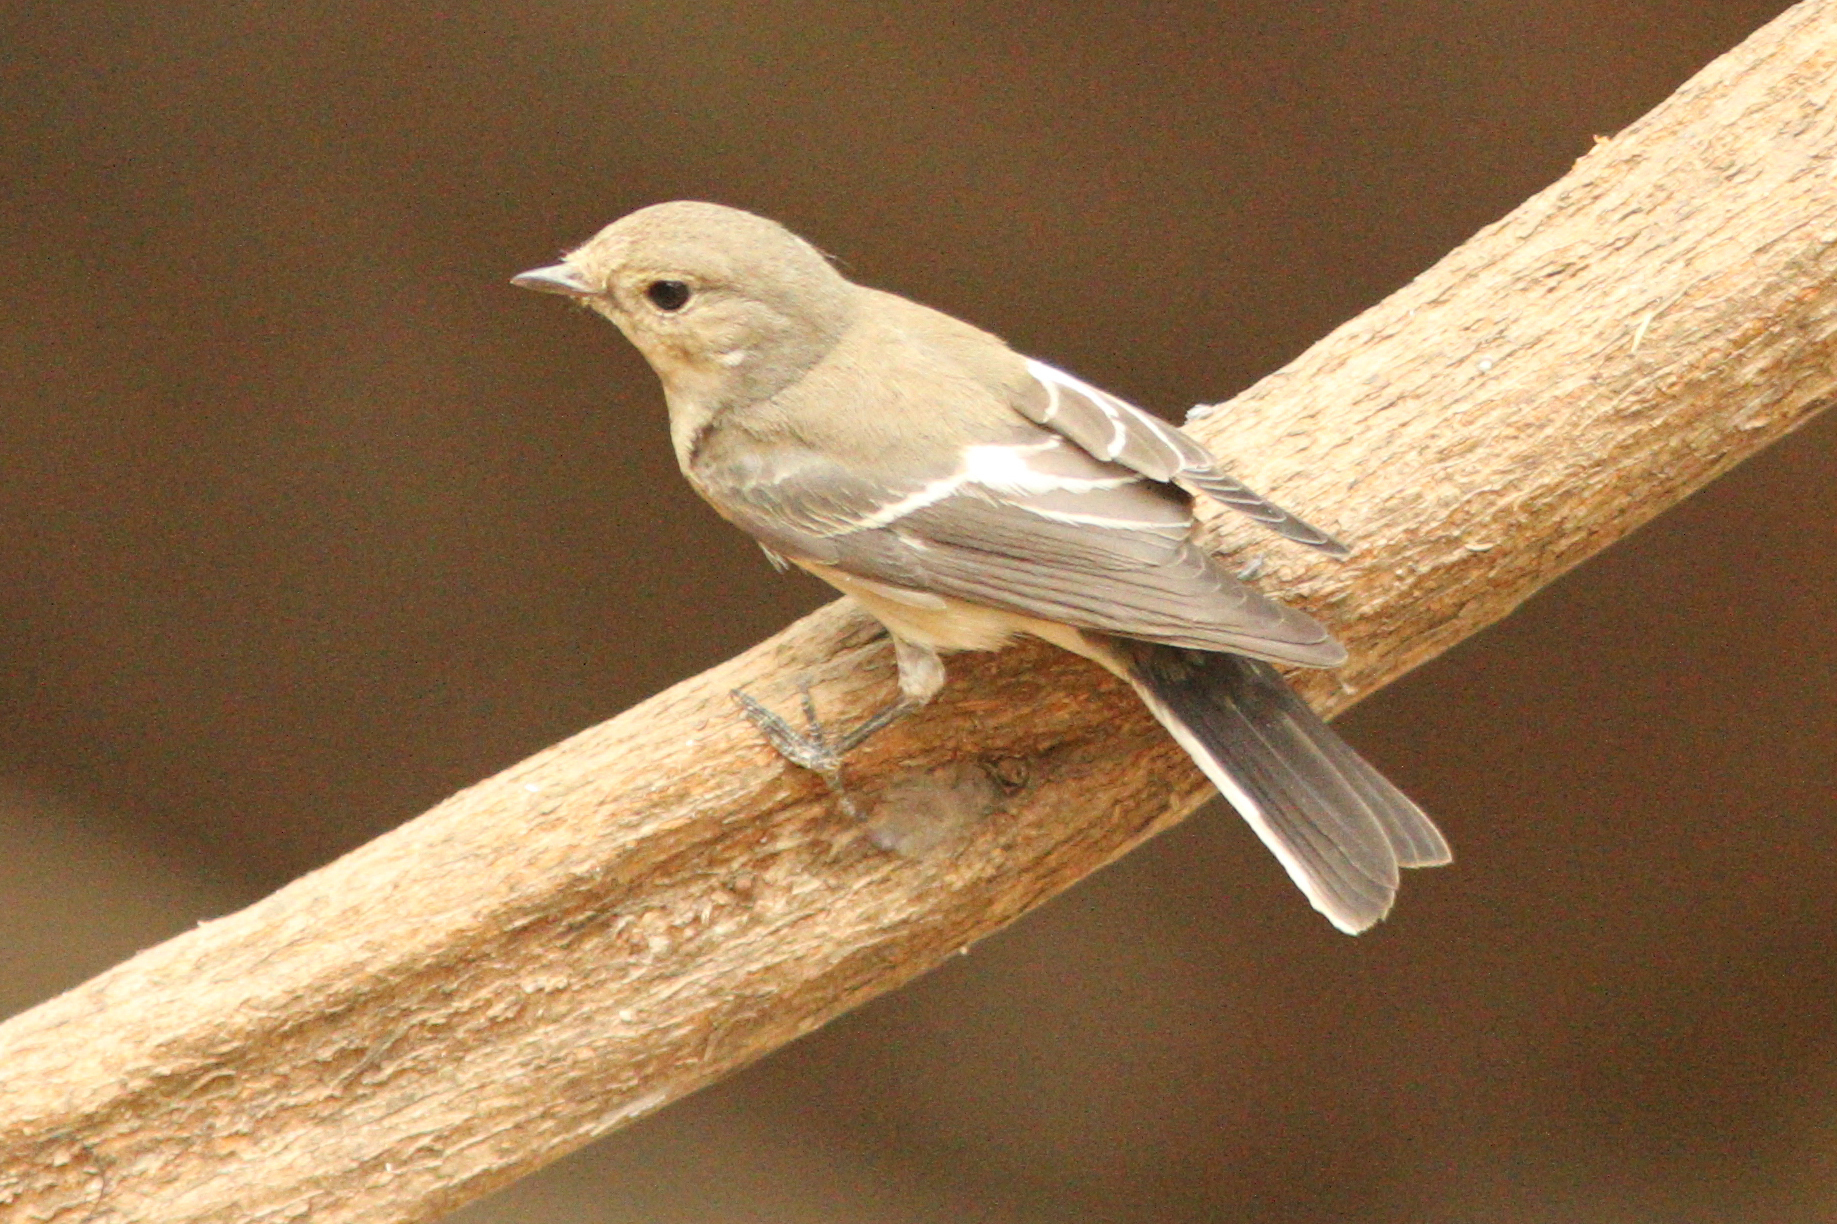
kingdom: Animalia
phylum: Chordata
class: Aves
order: Passeriformes
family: Muscicapidae
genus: Ficedula
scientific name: Ficedula hypoleuca
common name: European pied flycatcher
